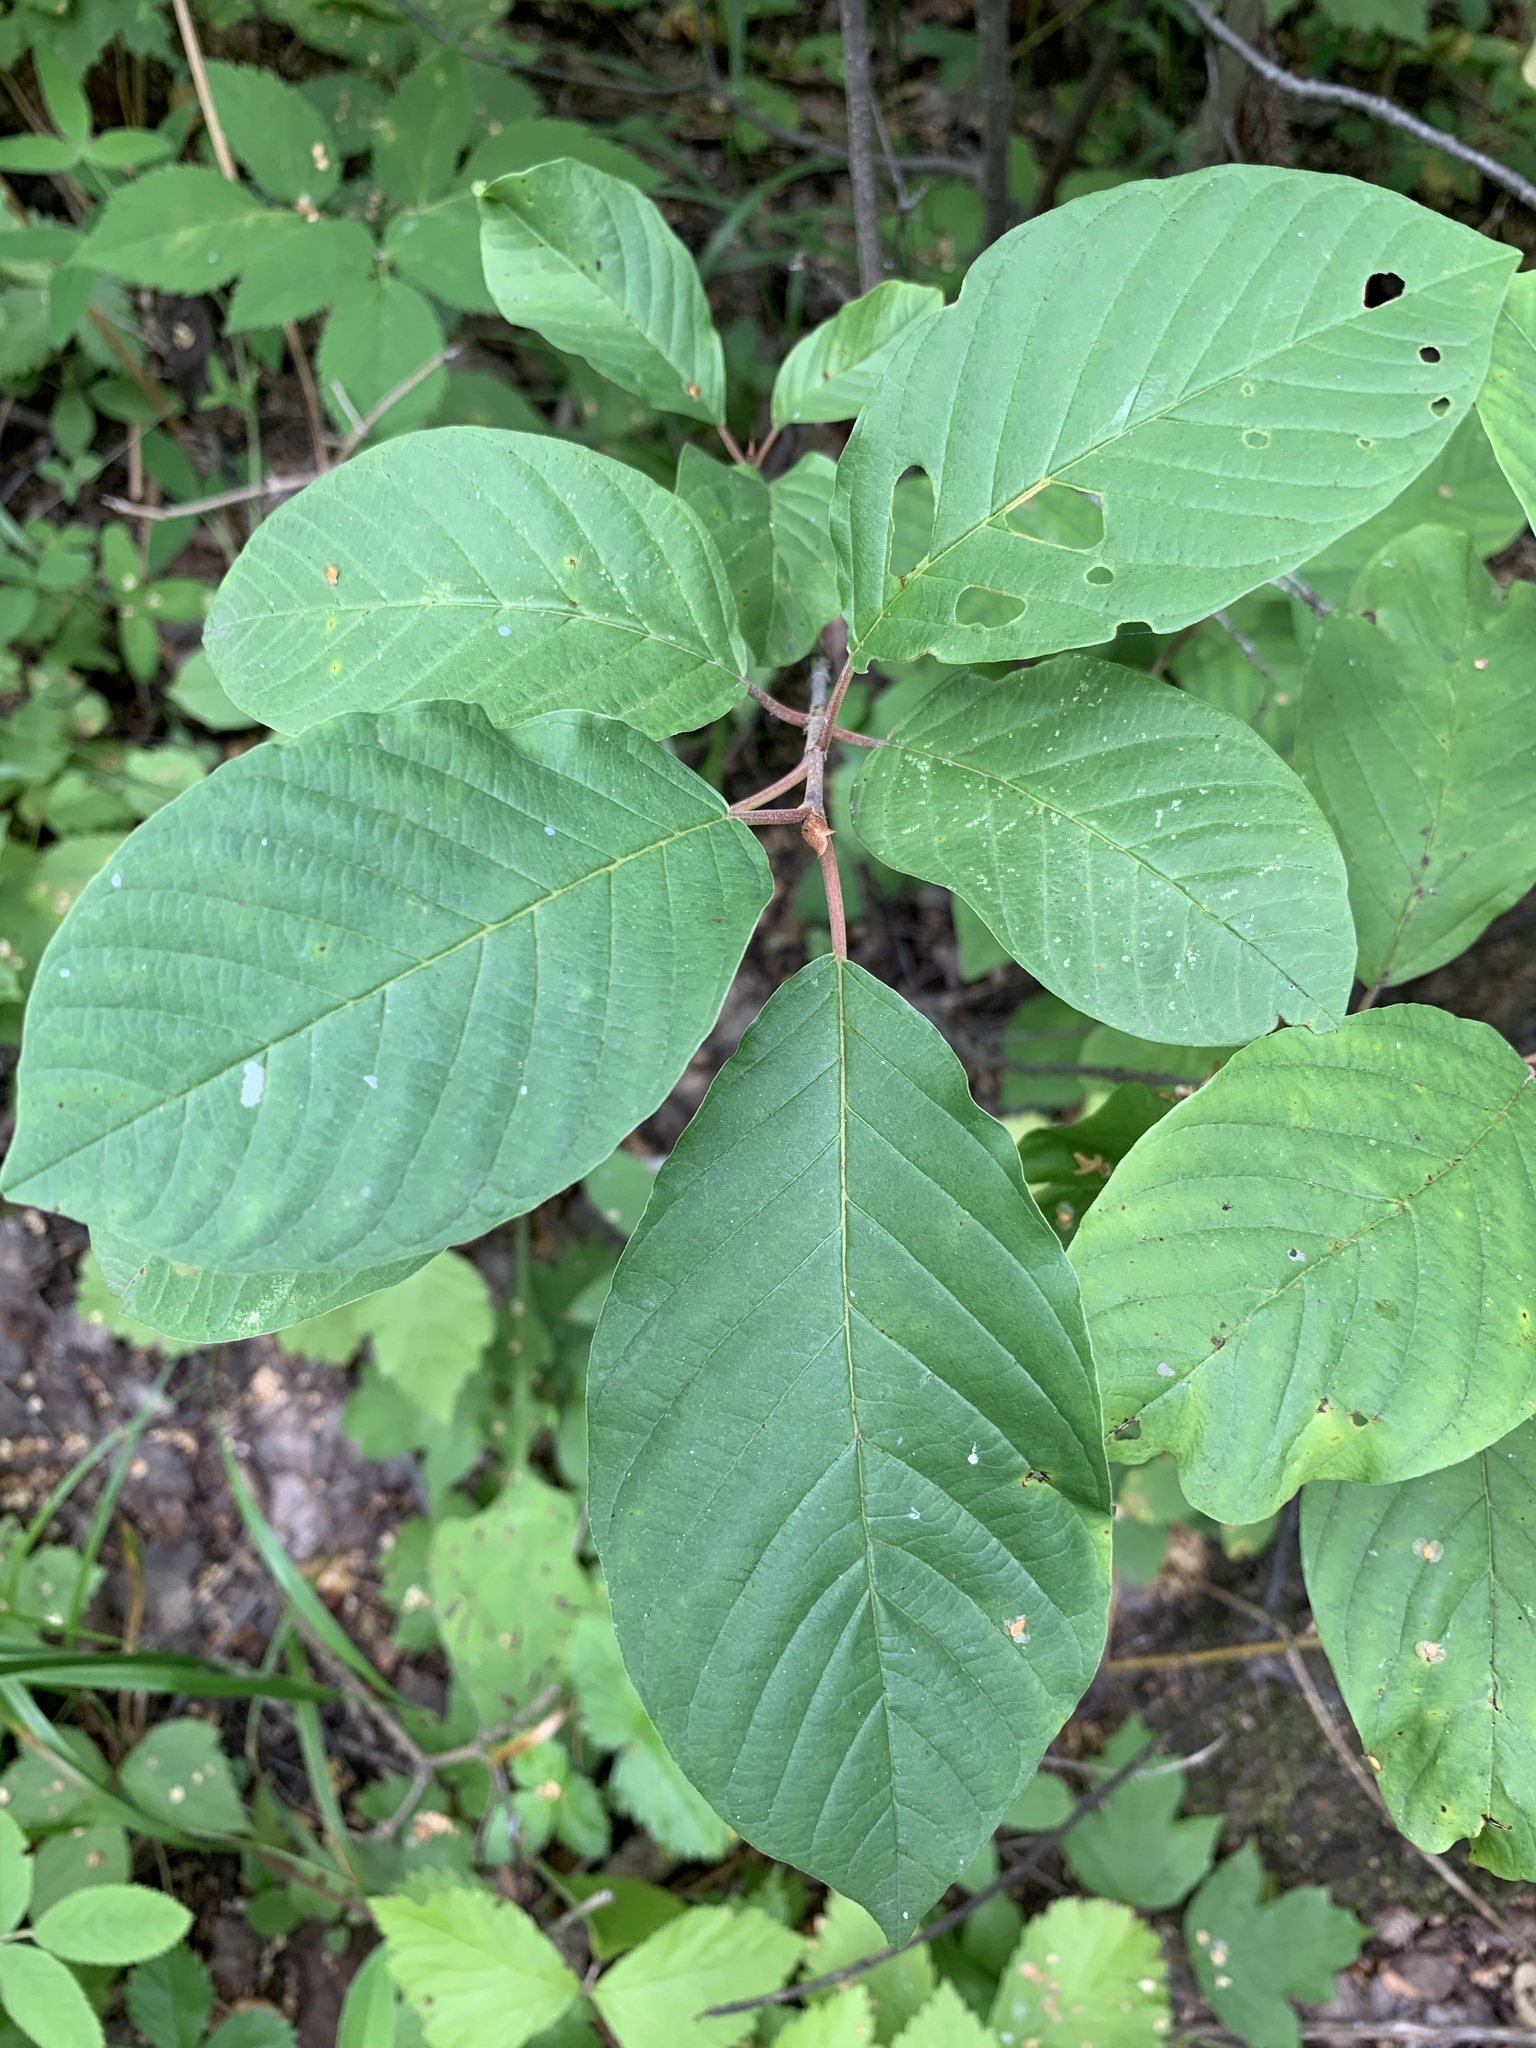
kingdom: Plantae
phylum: Tracheophyta
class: Magnoliopsida
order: Rosales
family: Rhamnaceae
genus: Frangula
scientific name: Frangula alnus
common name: Alder buckthorn
